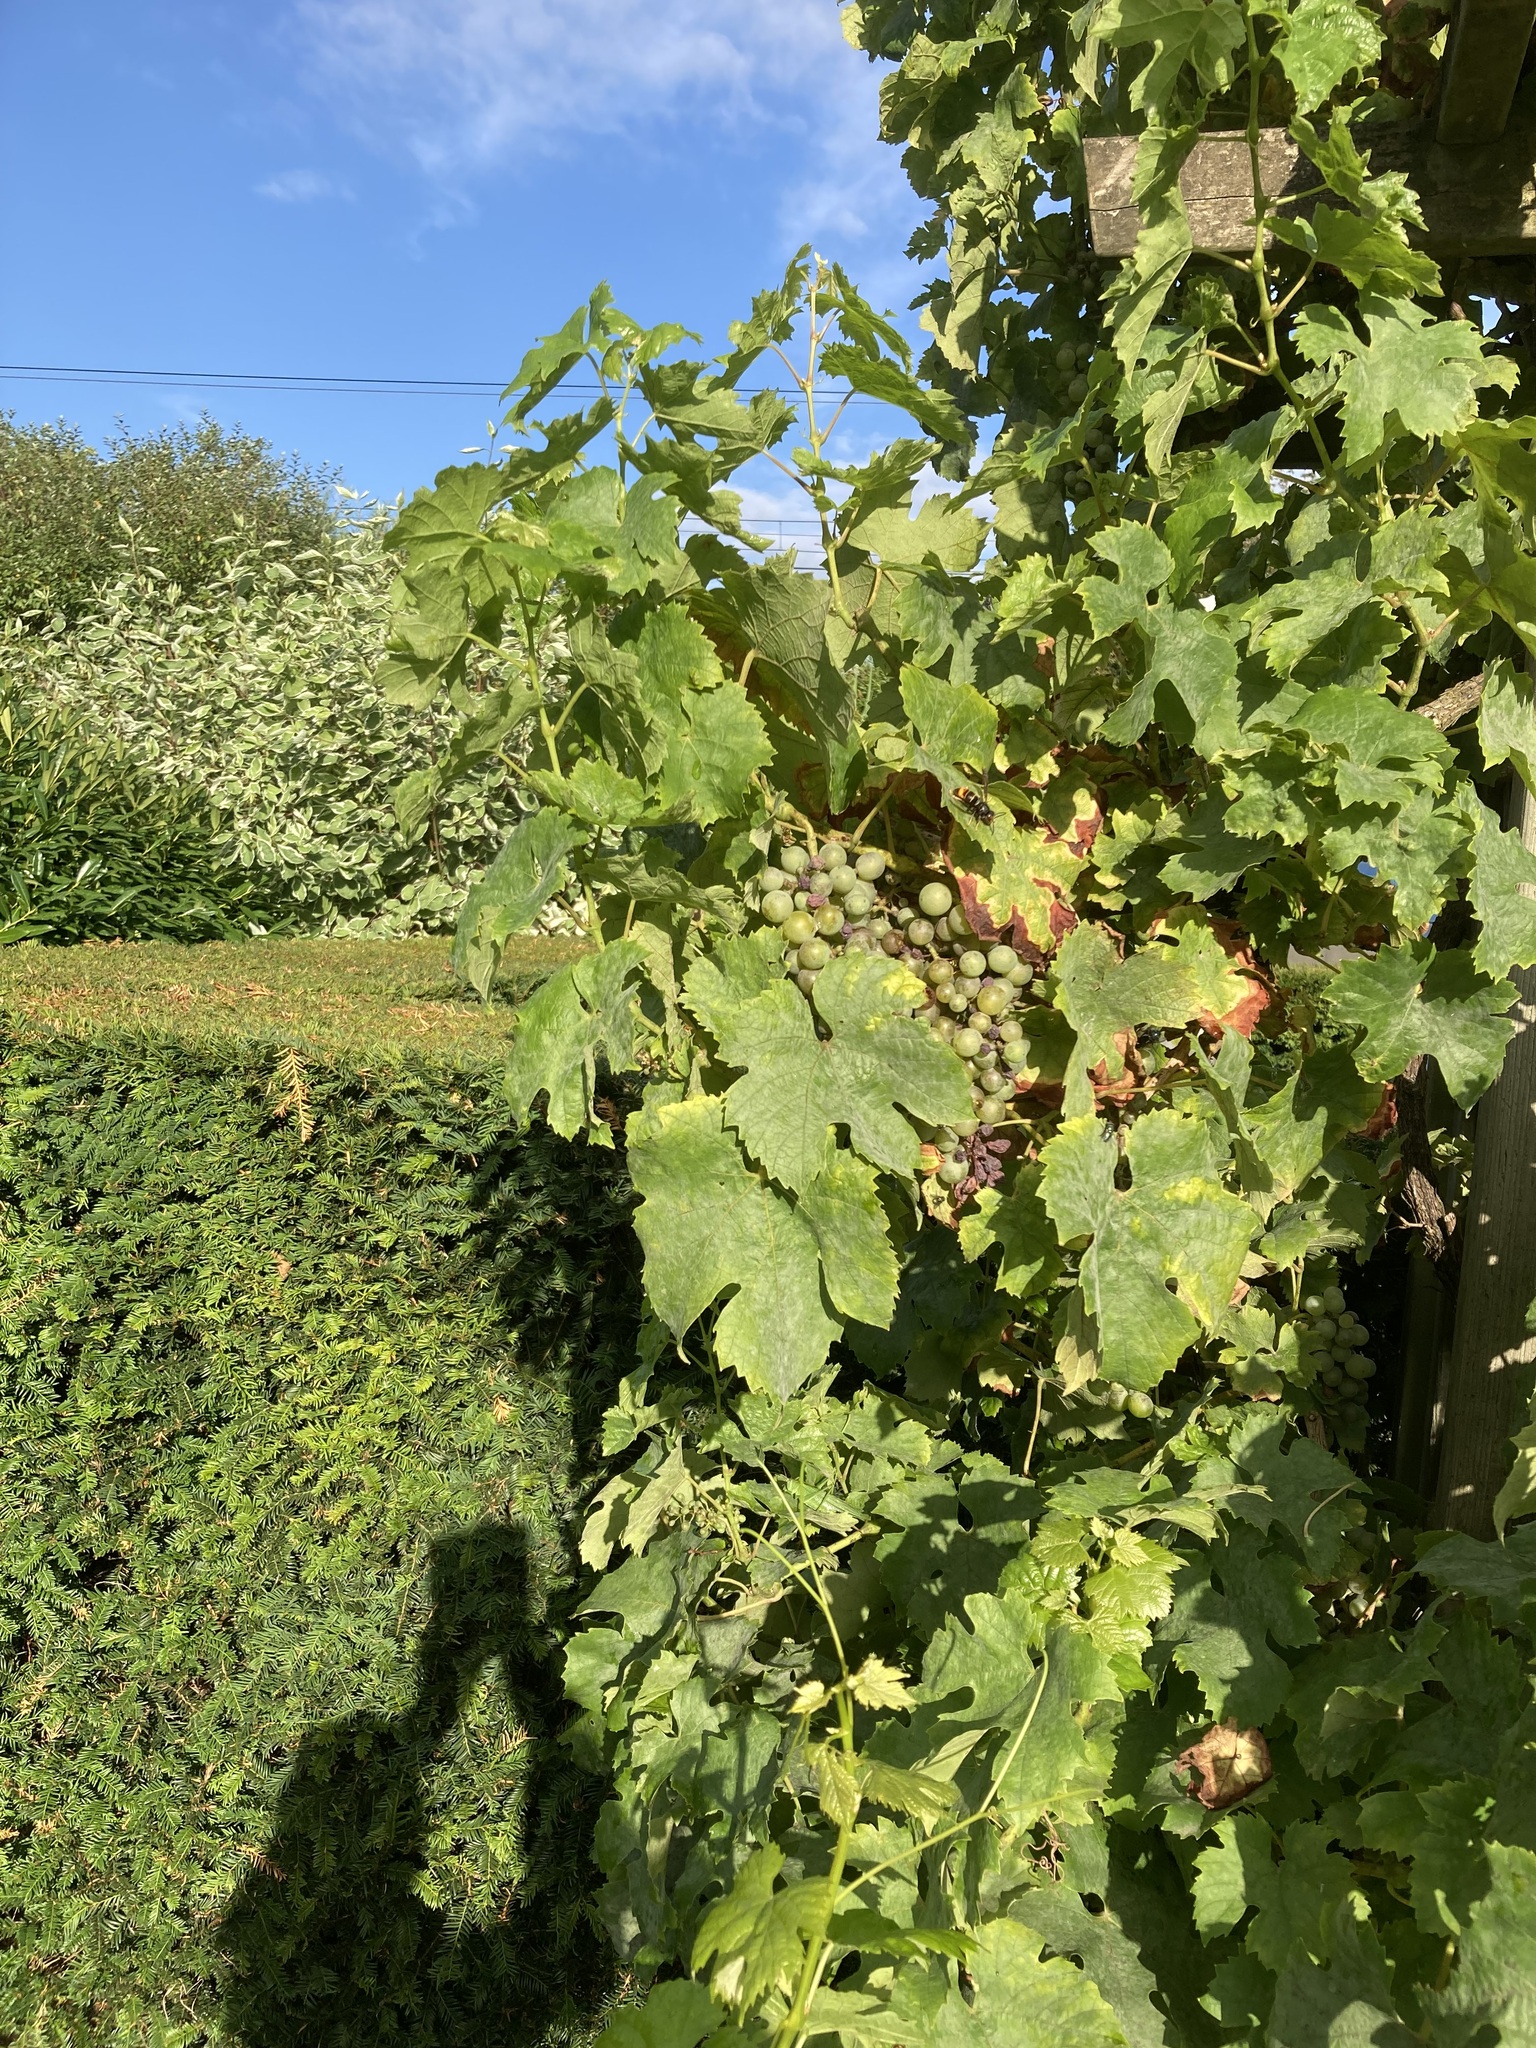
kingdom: Animalia
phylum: Arthropoda
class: Insecta
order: Hymenoptera
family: Vespidae
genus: Vespa
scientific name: Vespa velutina
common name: Asian hornet
